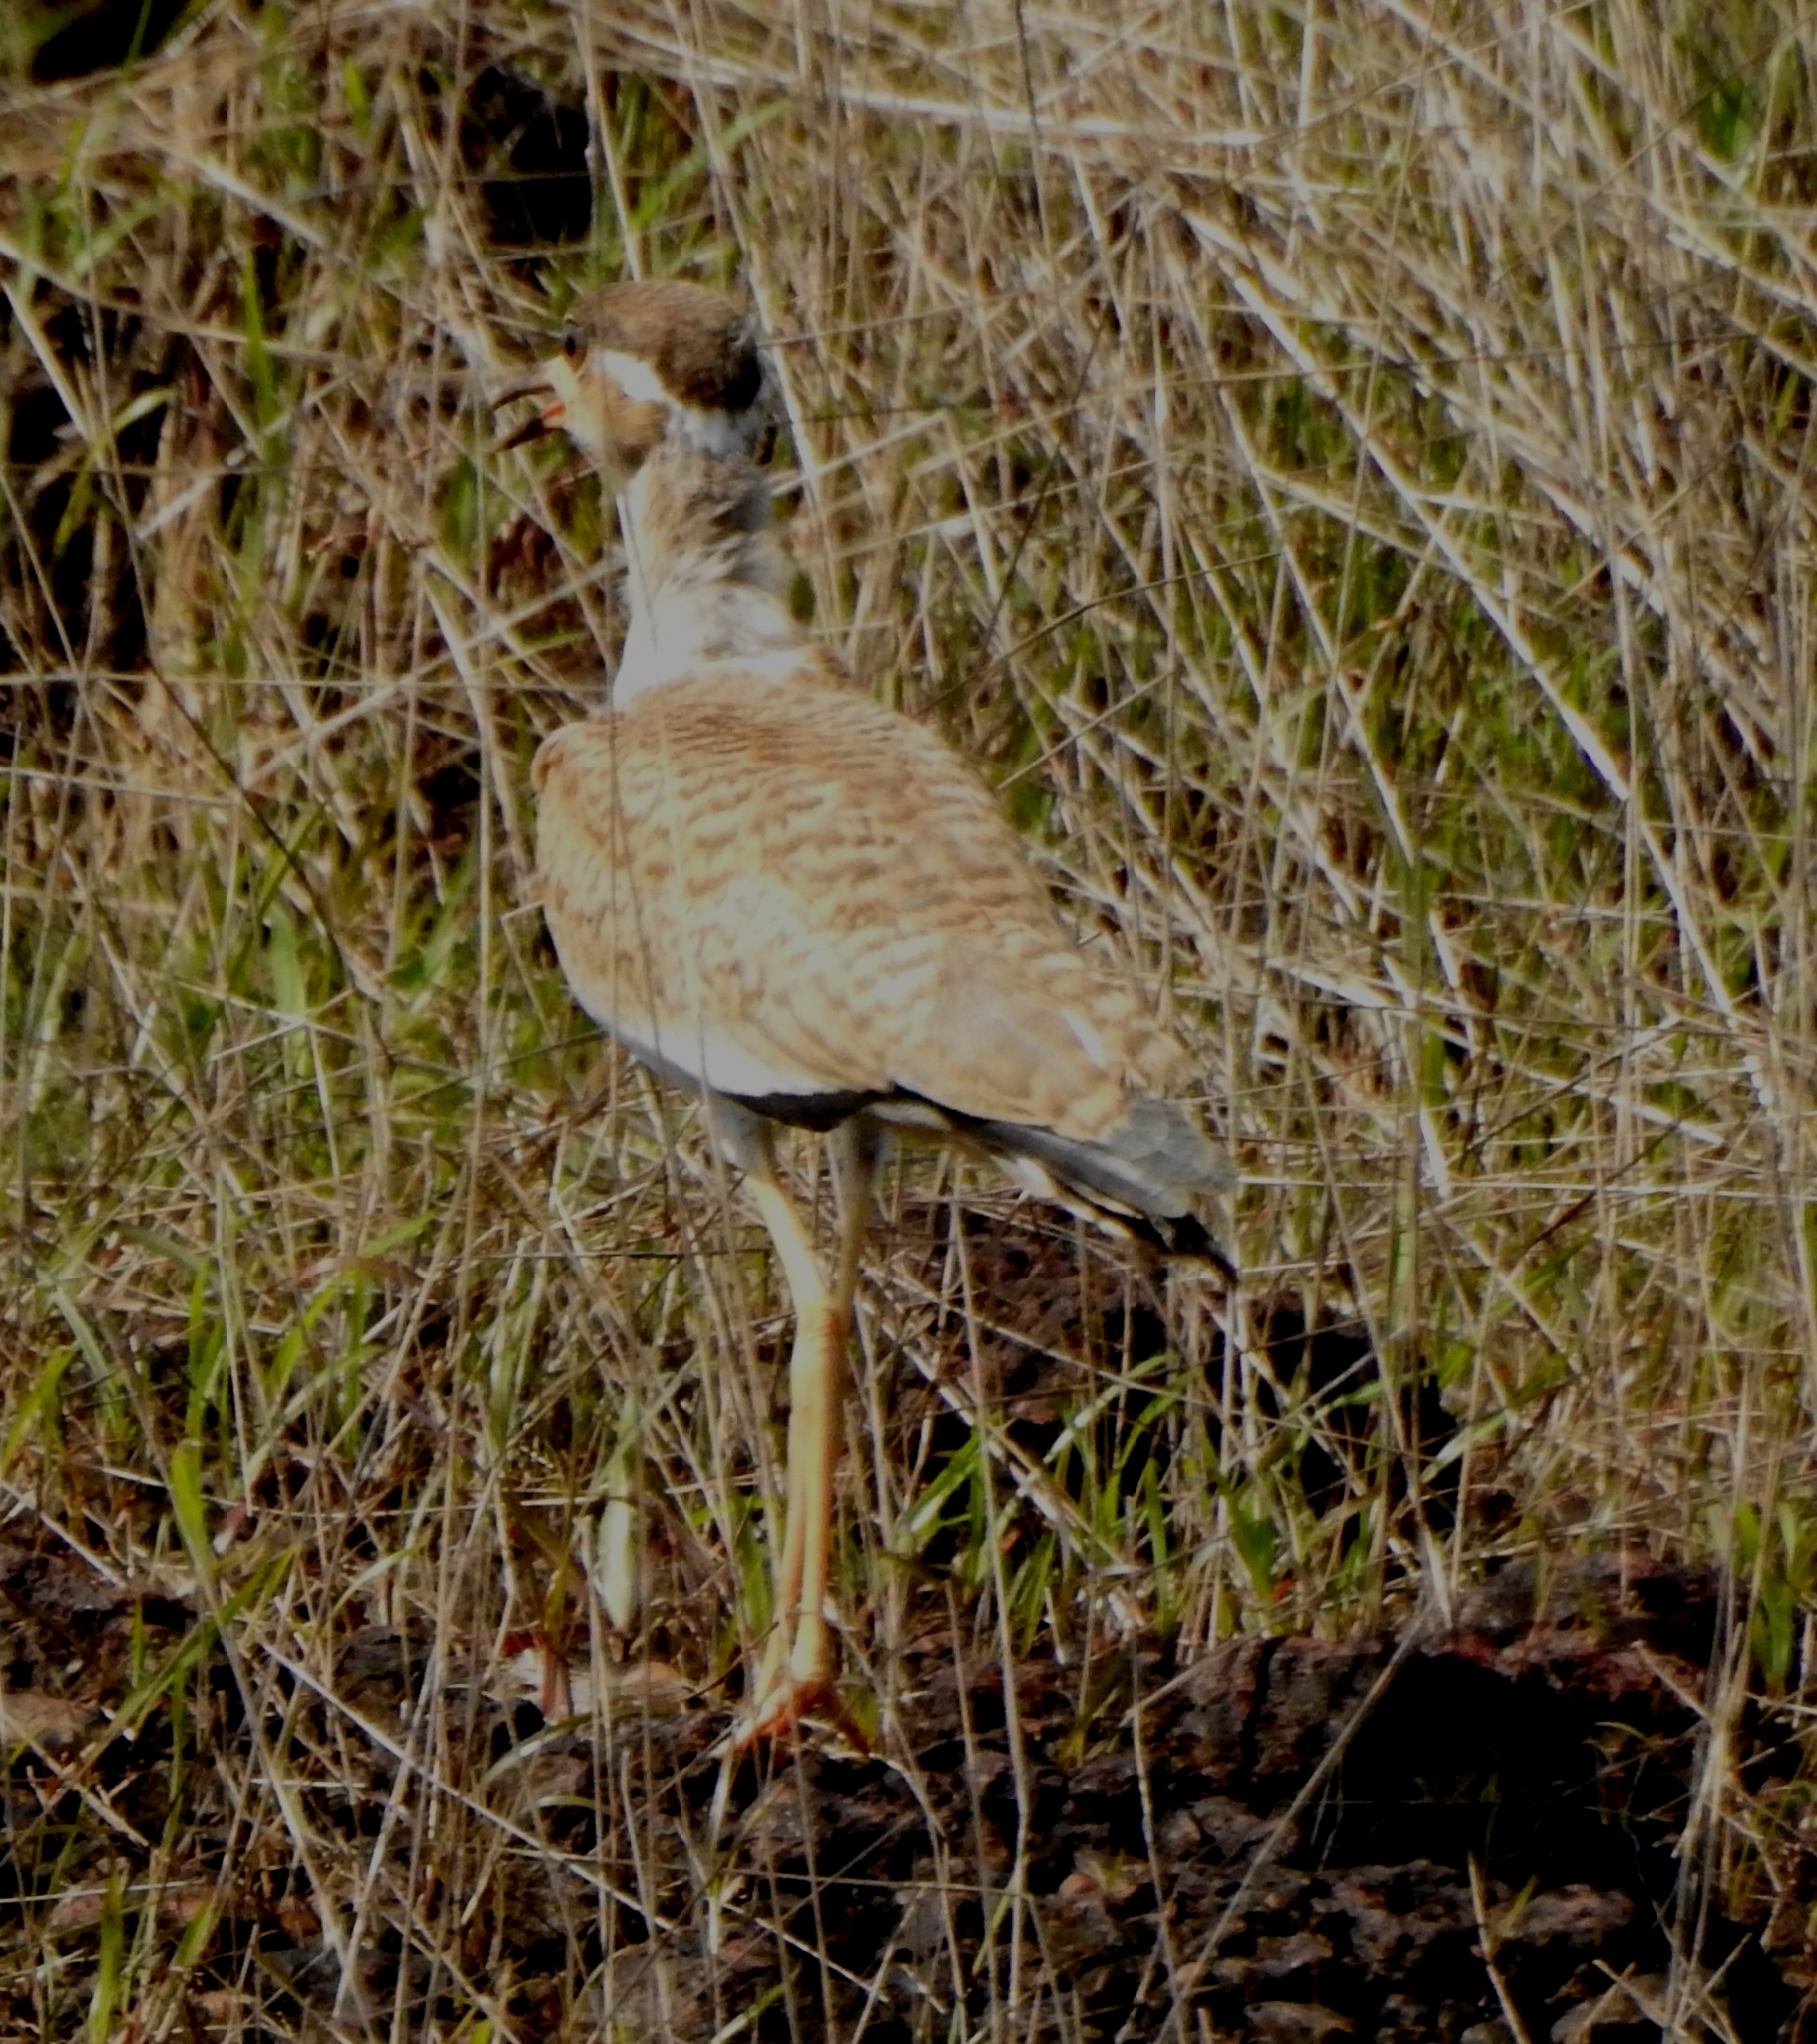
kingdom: Animalia
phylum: Chordata
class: Aves
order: Charadriiformes
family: Charadriidae
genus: Vanellus
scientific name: Vanellus malabaricus
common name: Yellow-wattled lapwing
